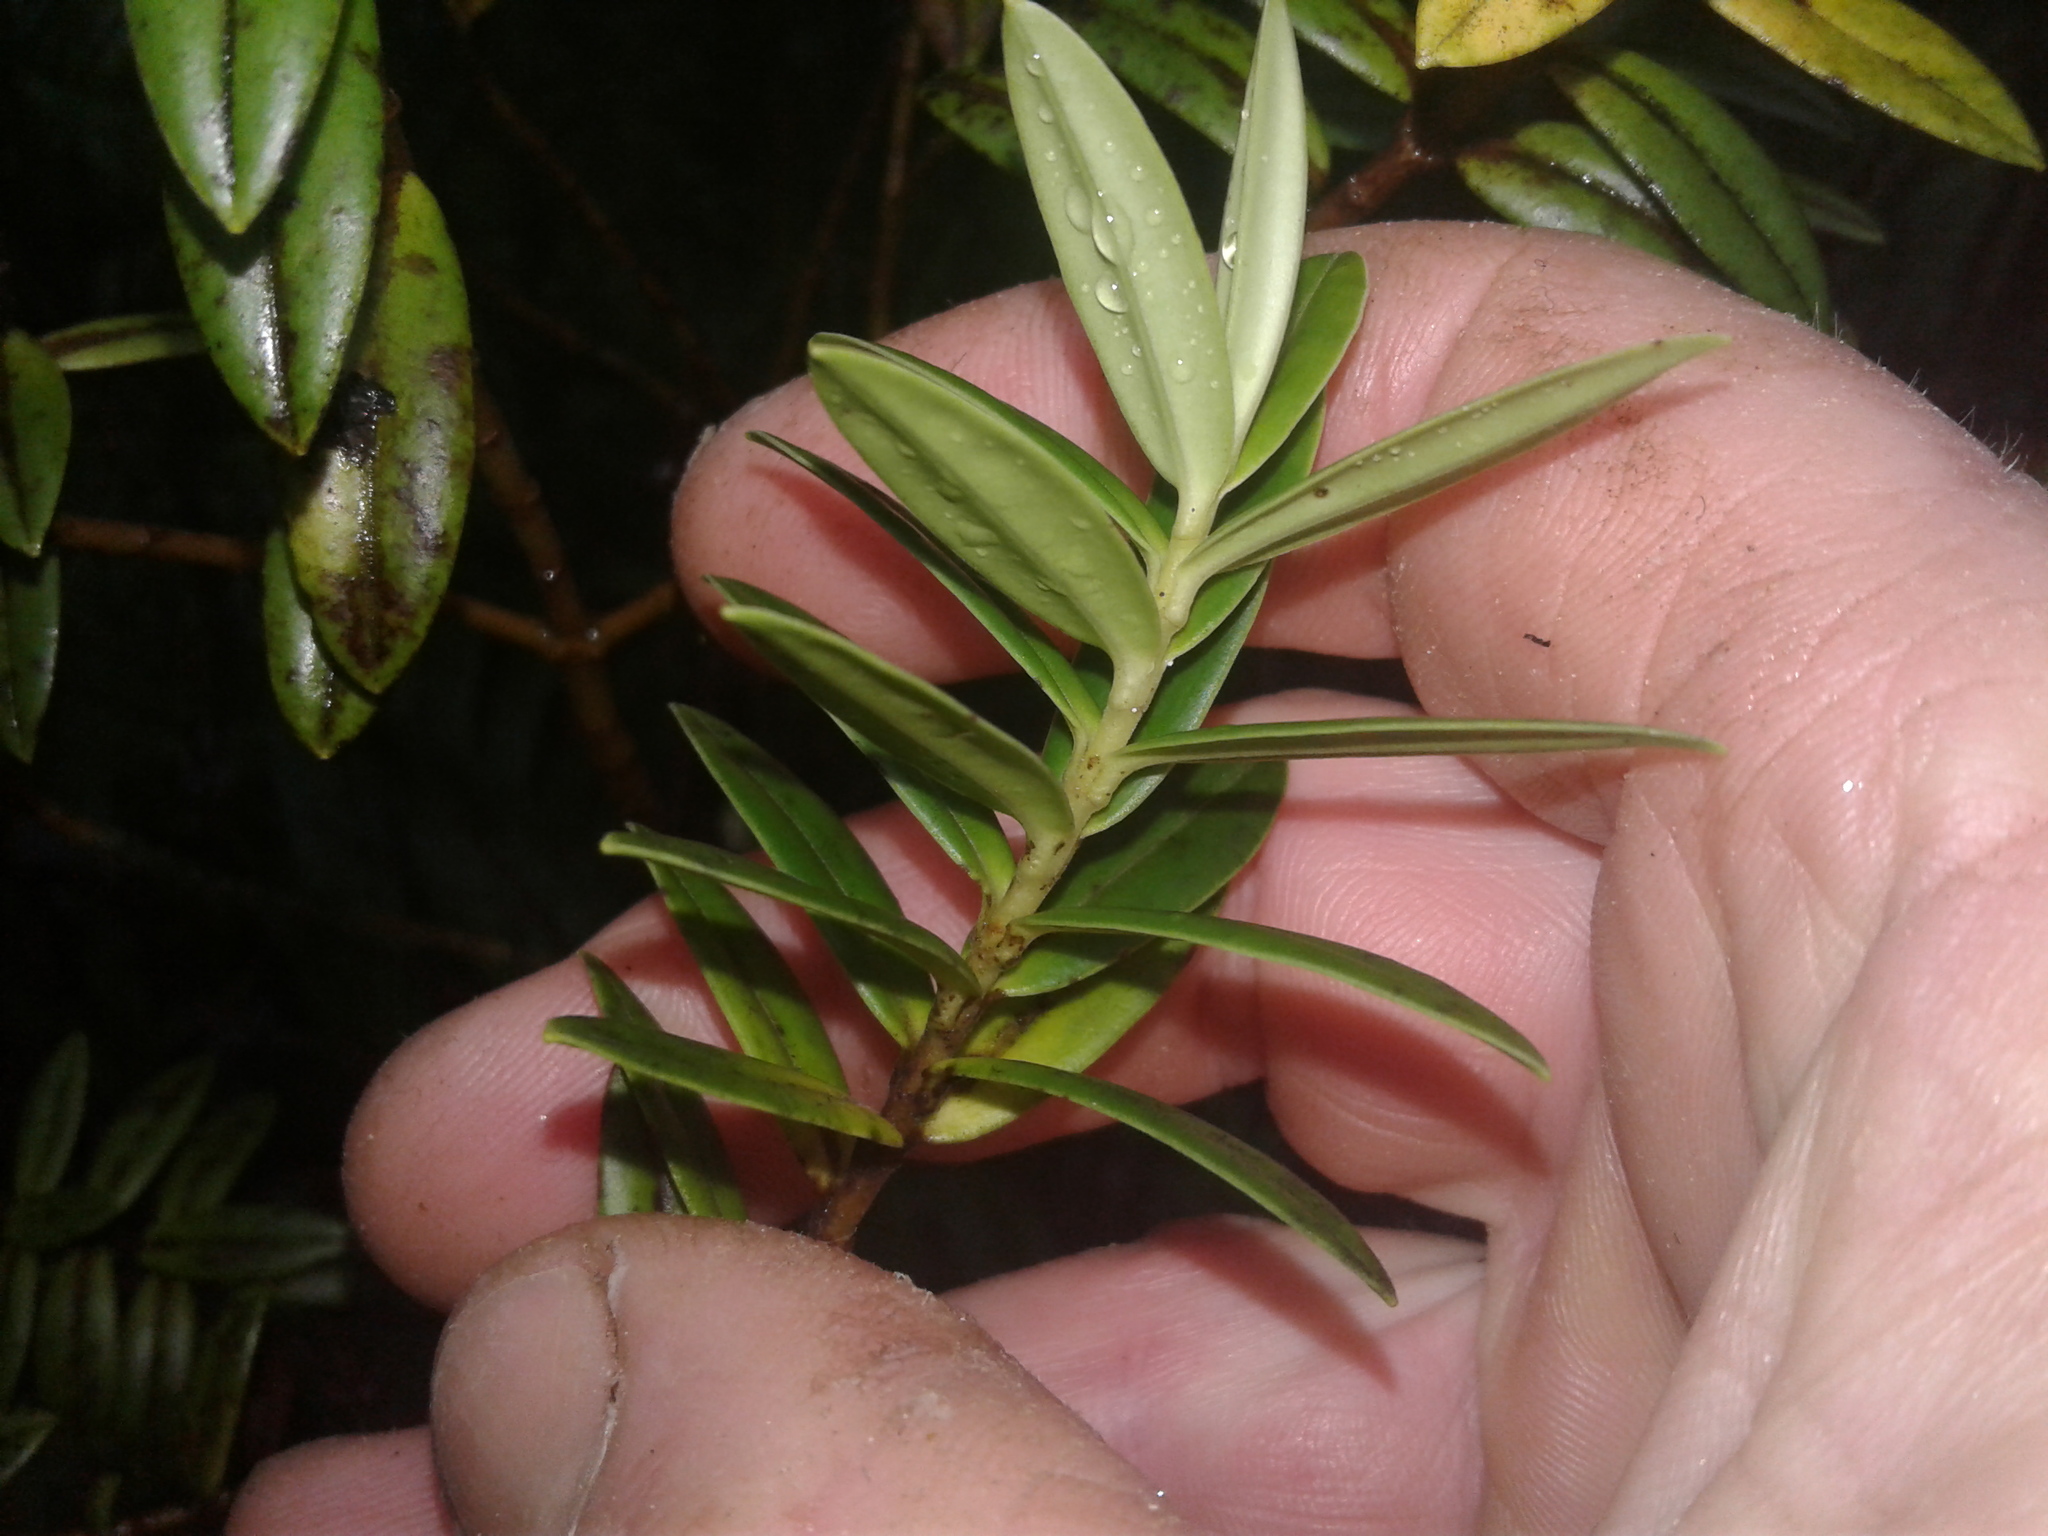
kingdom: Plantae
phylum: Tracheophyta
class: Magnoliopsida
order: Lamiales
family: Plantaginaceae
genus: Veronica
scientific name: Veronica
